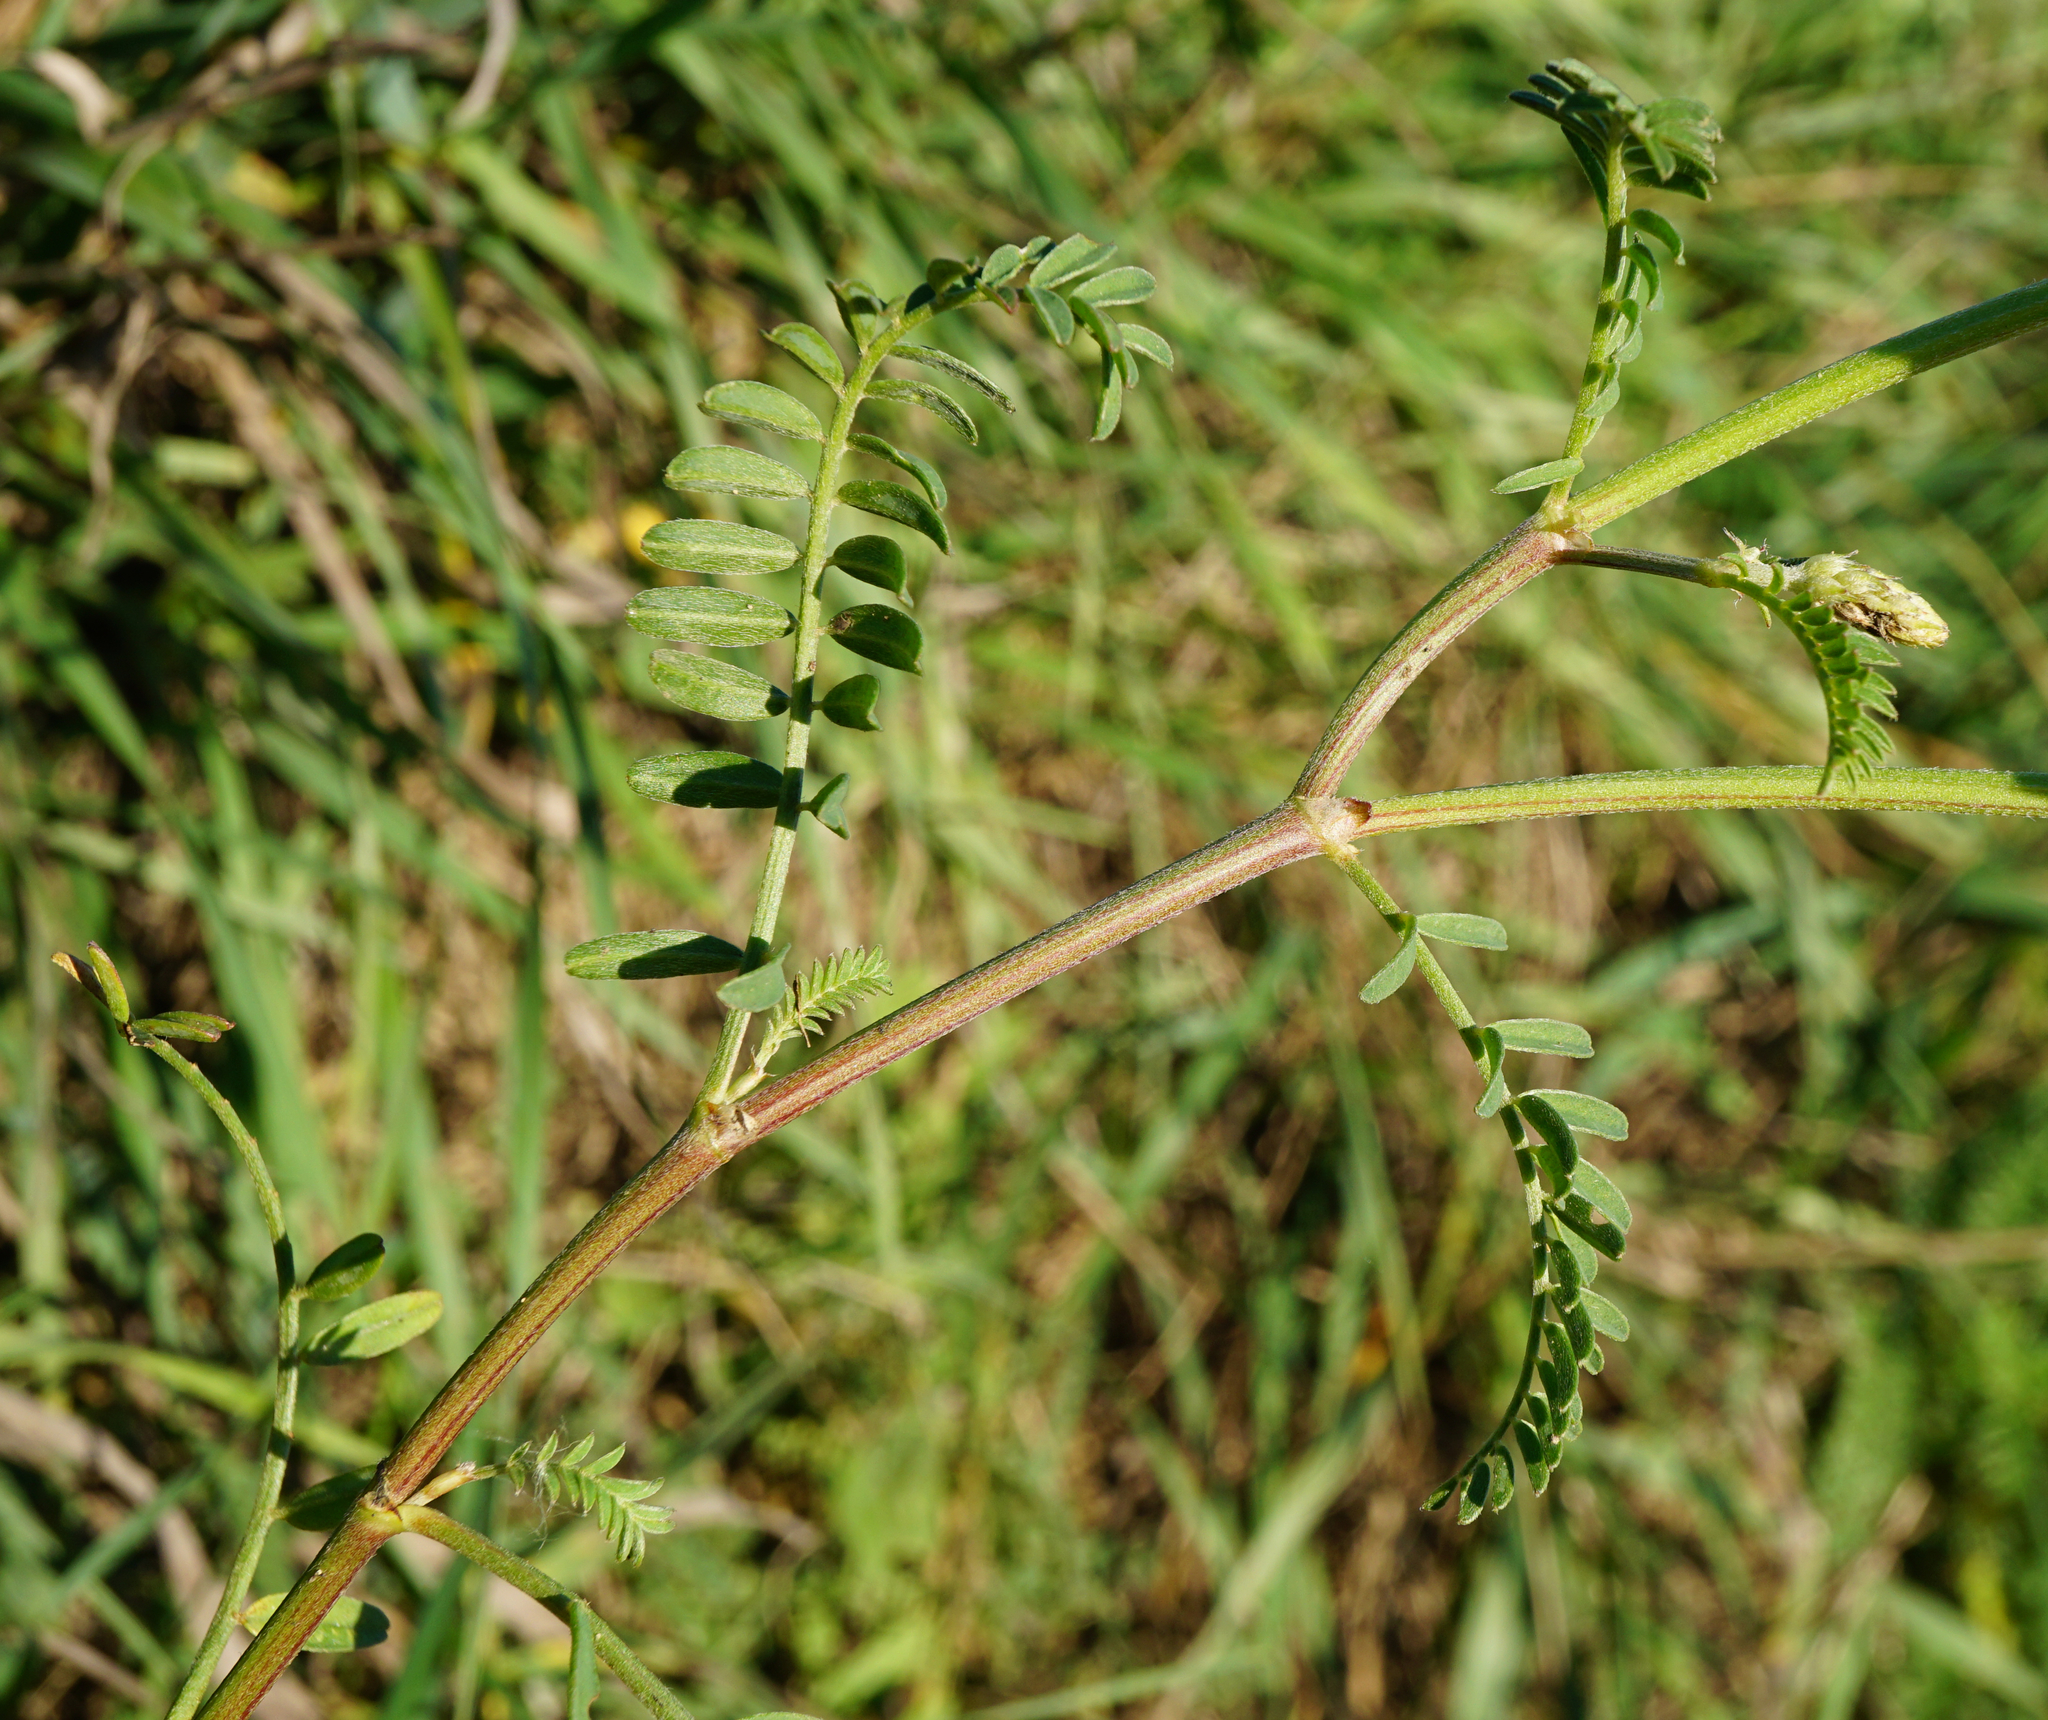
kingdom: Plantae
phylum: Tracheophyta
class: Magnoliopsida
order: Fabales
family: Fabaceae
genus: Astragalus
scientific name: Astragalus onobrychis
